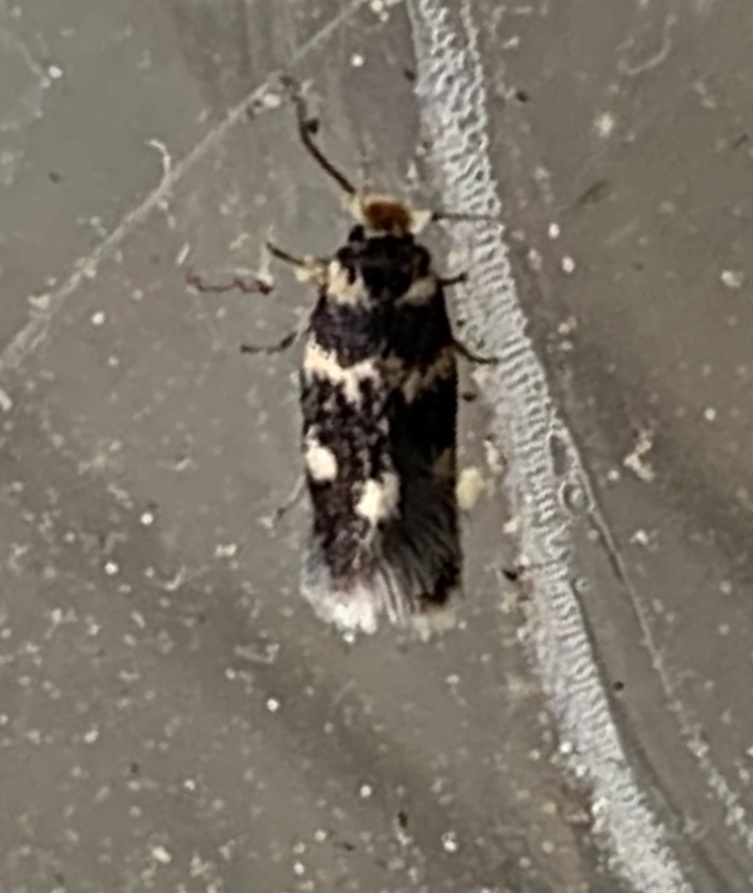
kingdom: Animalia
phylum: Arthropoda
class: Insecta
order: Lepidoptera
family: Nepticulidae
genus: Etainia
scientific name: Etainia sericopeza
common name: Leafminer
